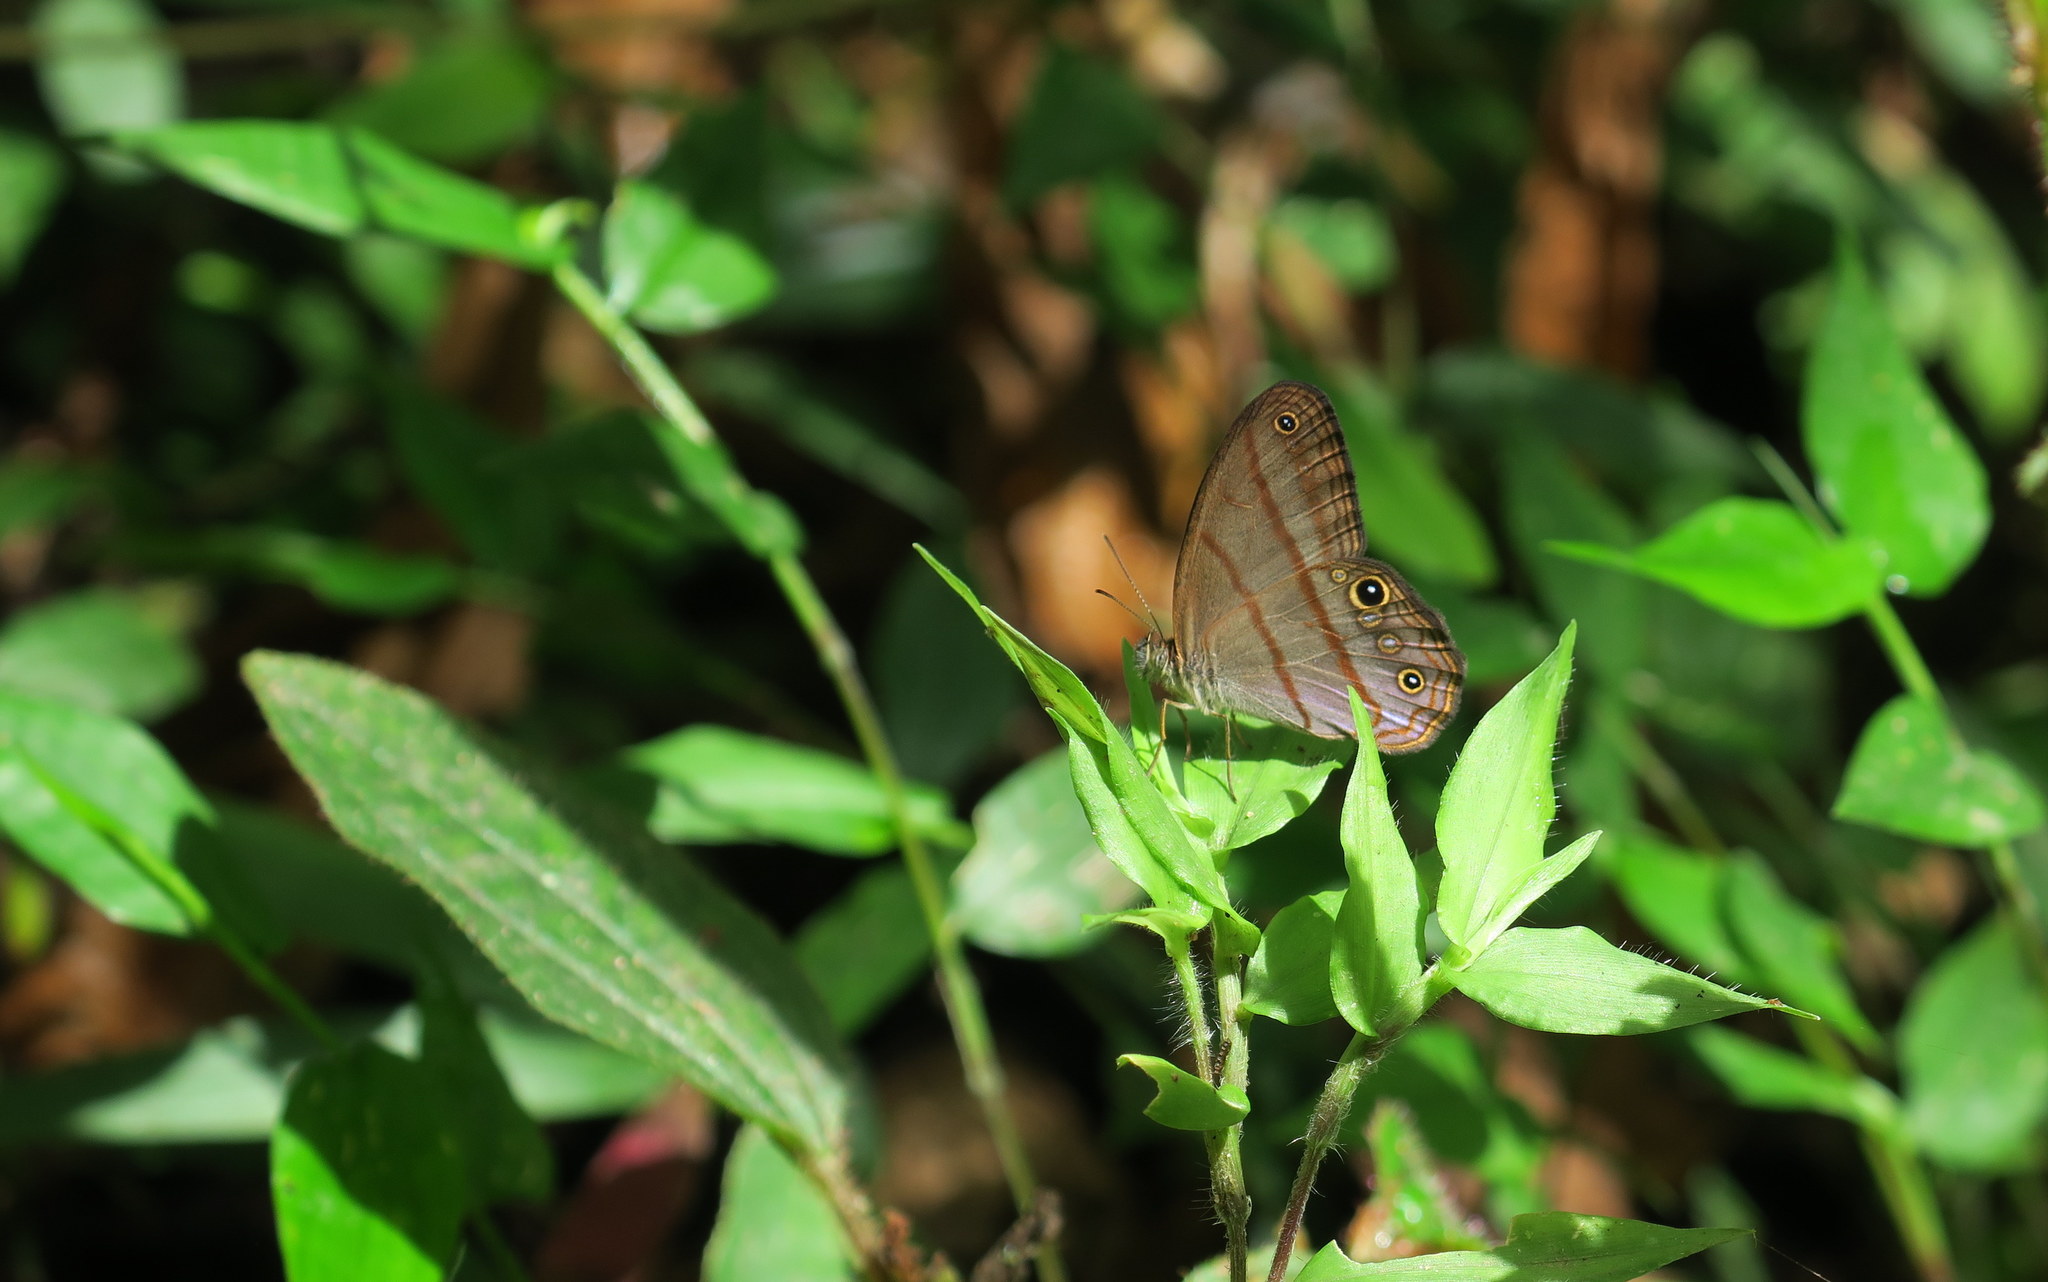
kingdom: Animalia
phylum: Arthropoda
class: Insecta
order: Lepidoptera
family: Nymphalidae
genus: Amiga
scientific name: Amiga arnaca
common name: Blue-topped satyr
